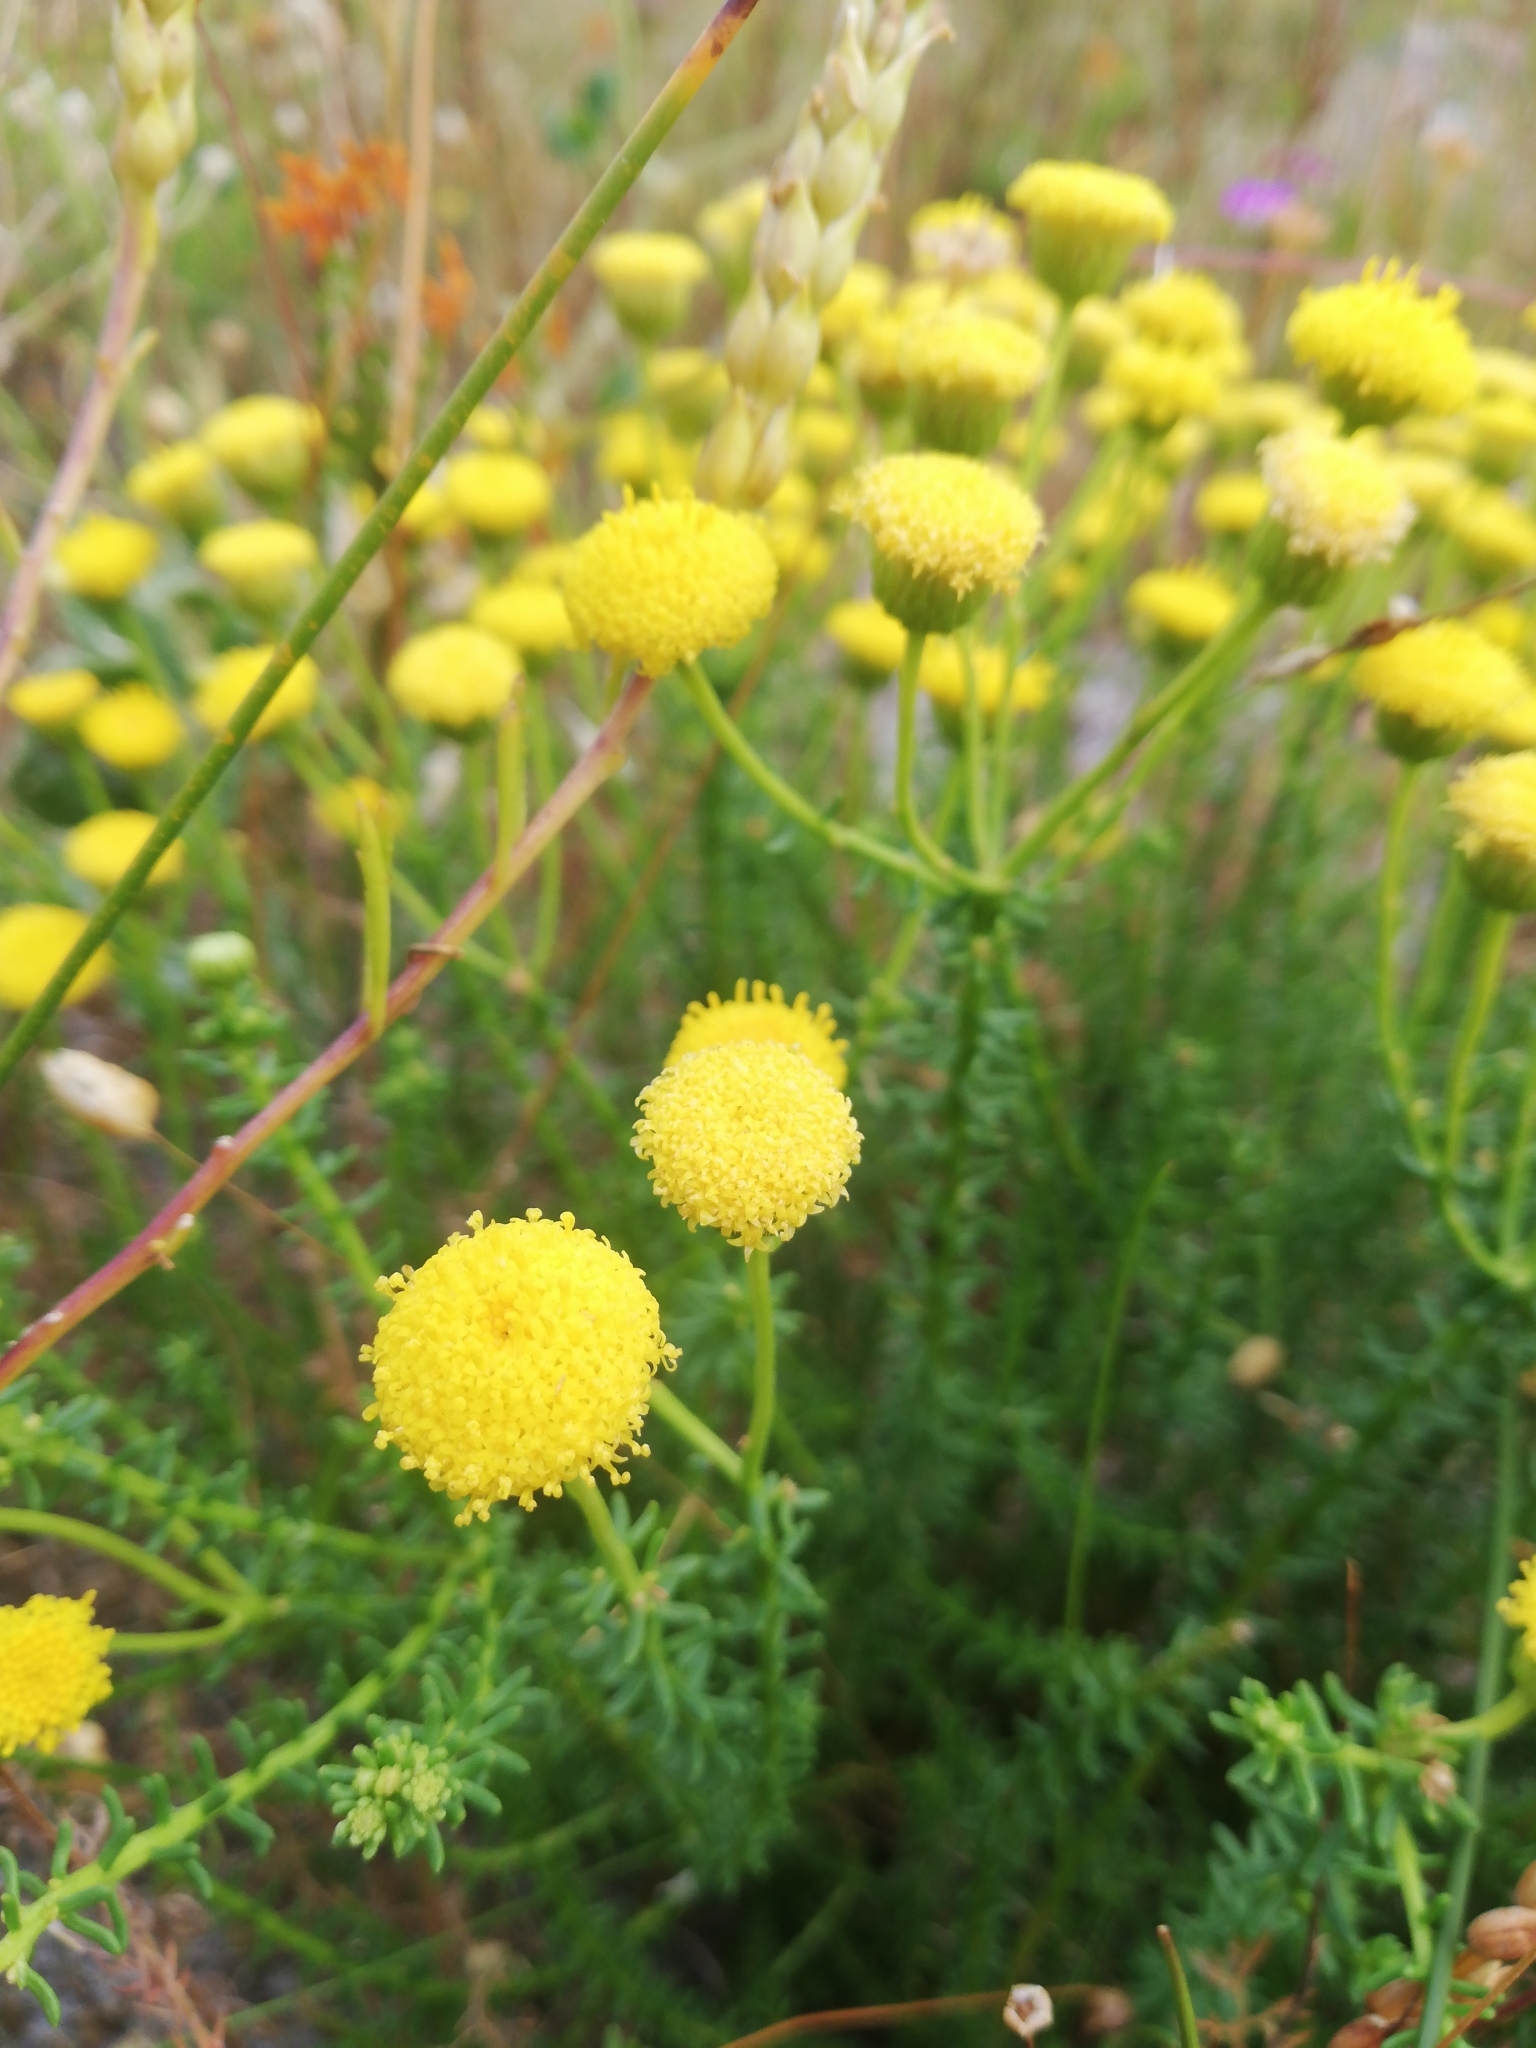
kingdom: Plantae
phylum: Tracheophyta
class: Magnoliopsida
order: Asterales
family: Asteraceae
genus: Chrysocoma
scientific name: Chrysocoma cernua
